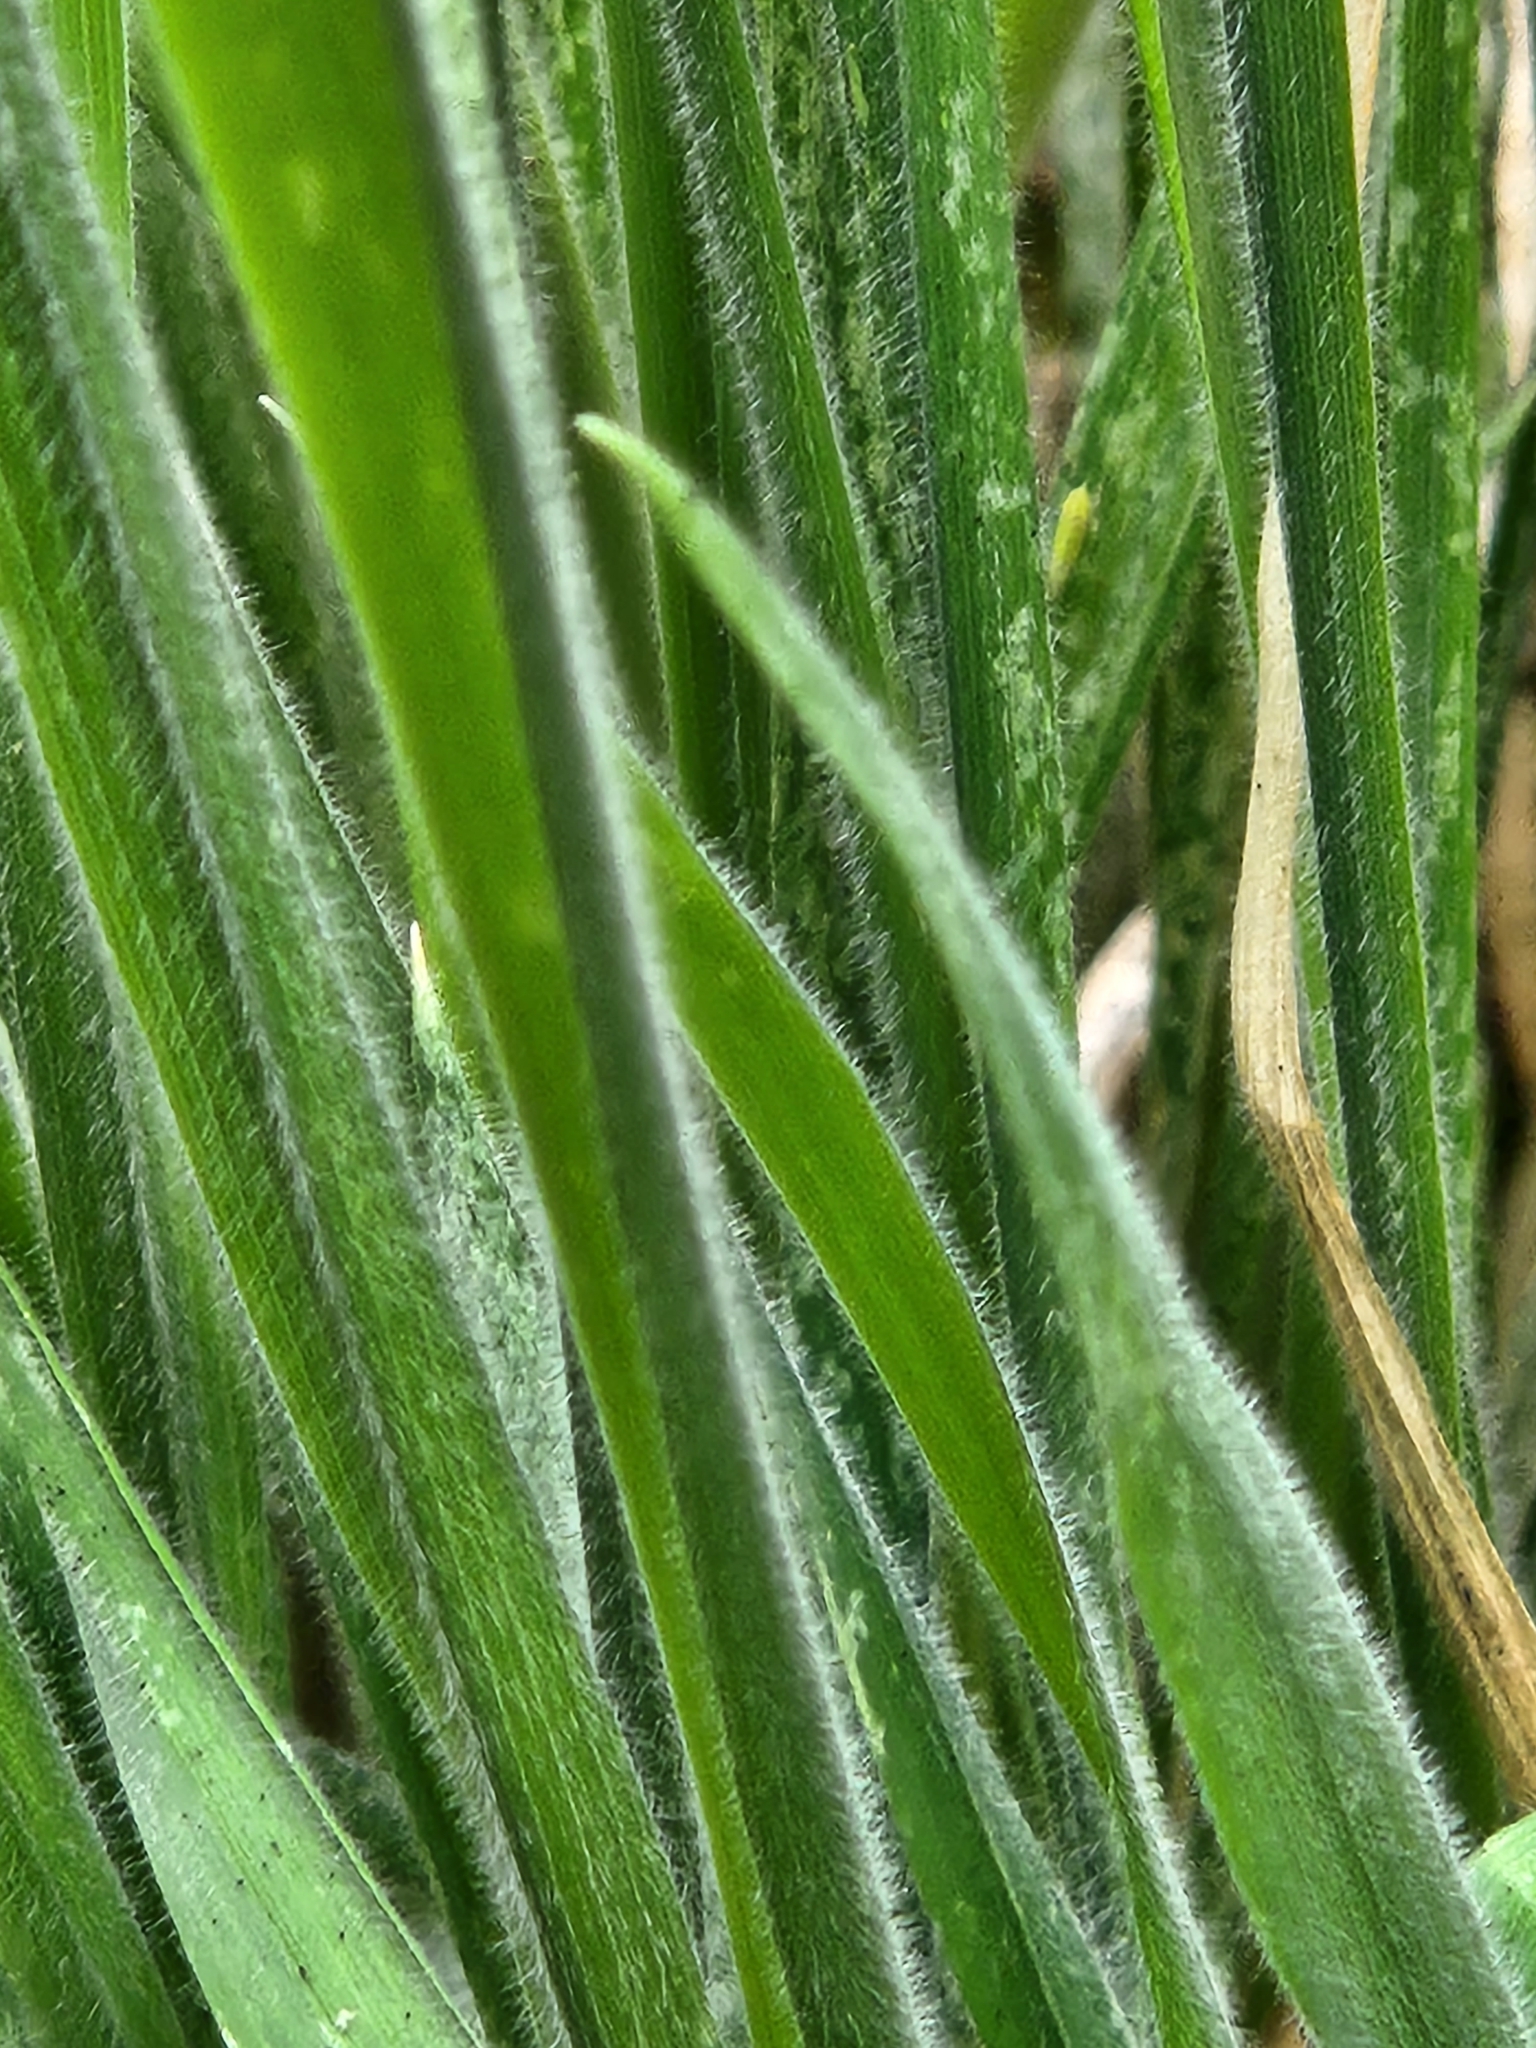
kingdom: Plantae
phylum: Tracheophyta
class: Liliopsida
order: Poales
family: Poaceae
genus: Holcus
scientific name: Holcus lanatus
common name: Yorkshire-fog
